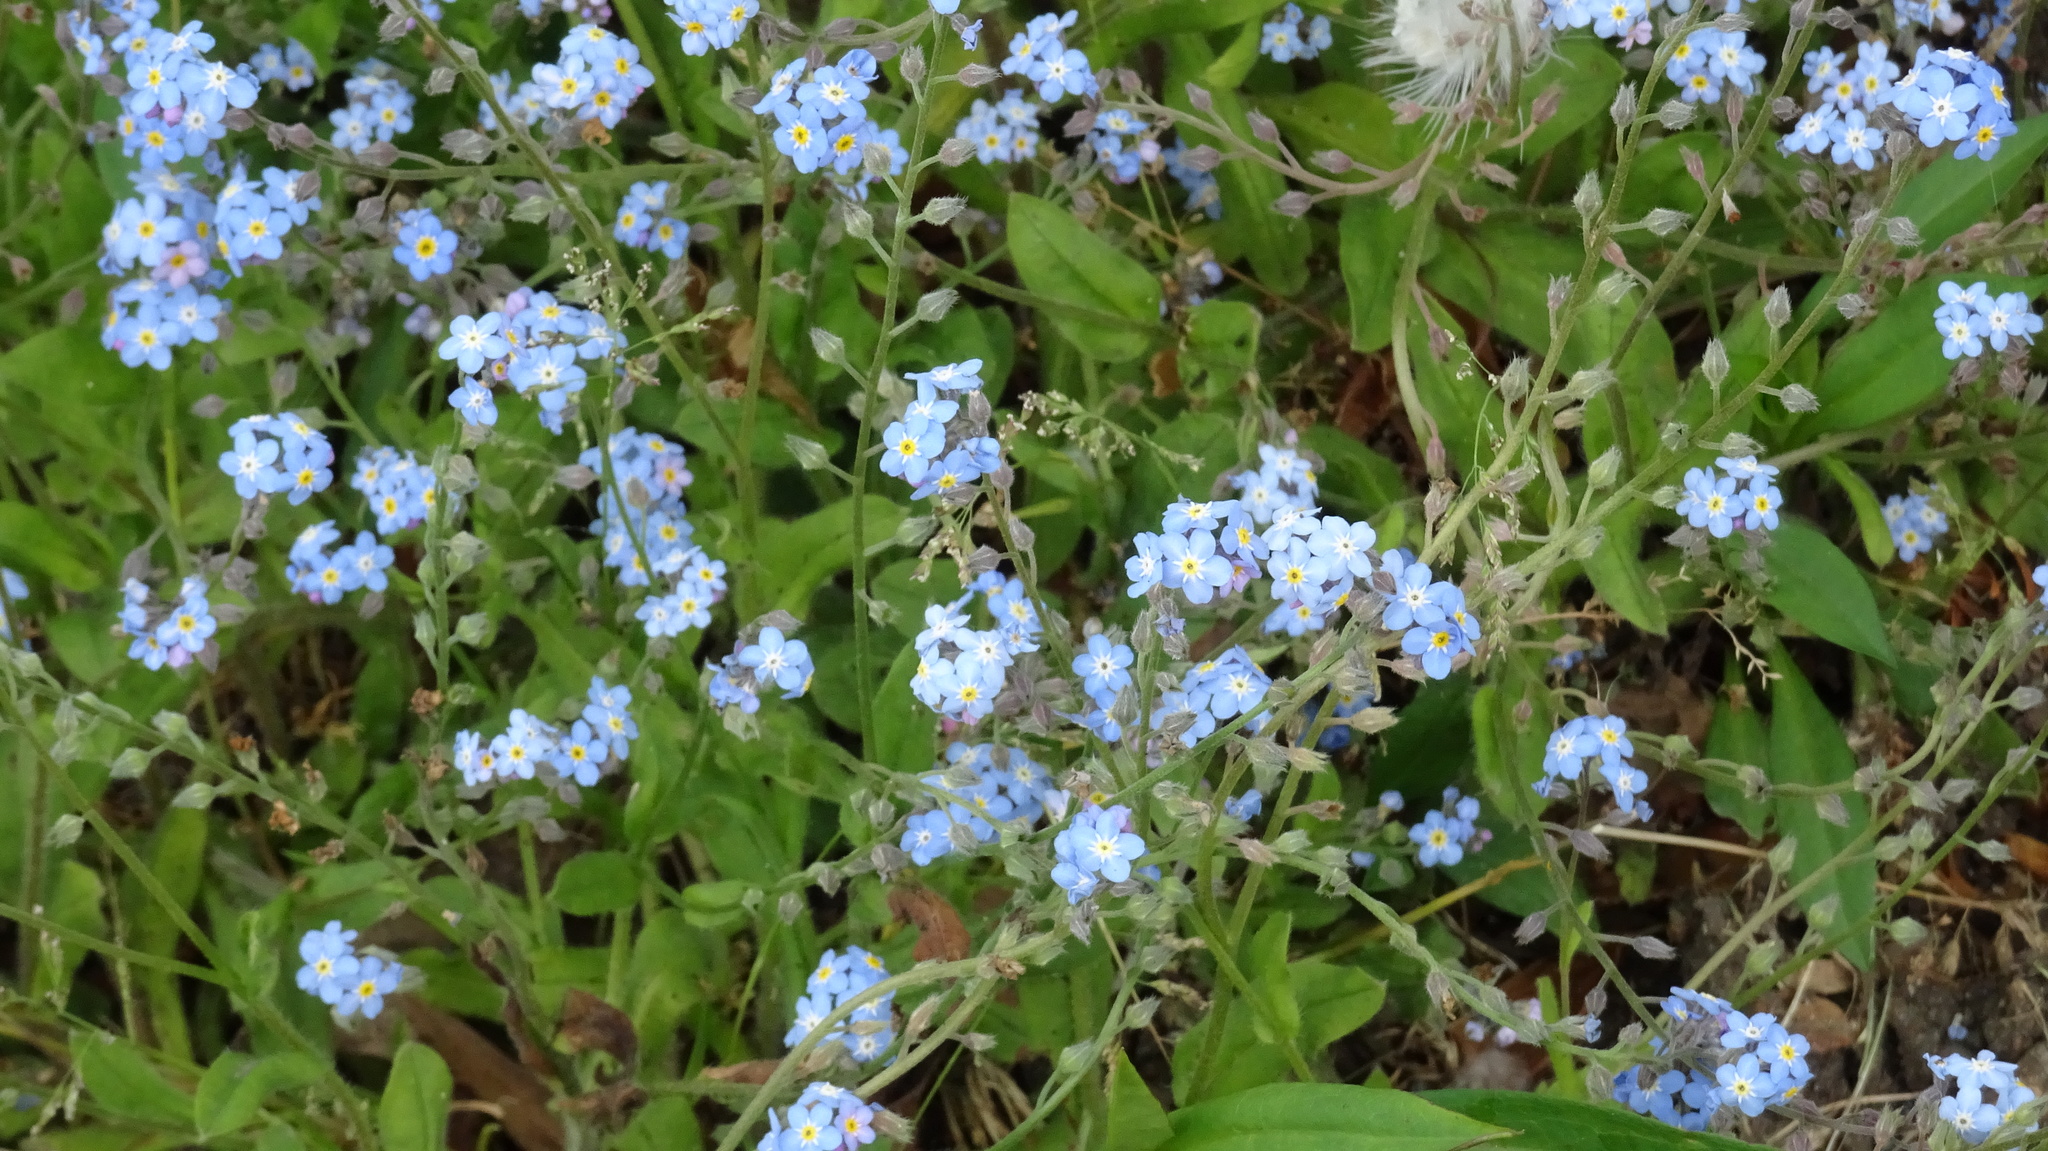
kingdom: Plantae
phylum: Tracheophyta
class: Magnoliopsida
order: Boraginales
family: Boraginaceae
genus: Myosotis
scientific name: Myosotis sylvatica
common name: Wood forget-me-not
